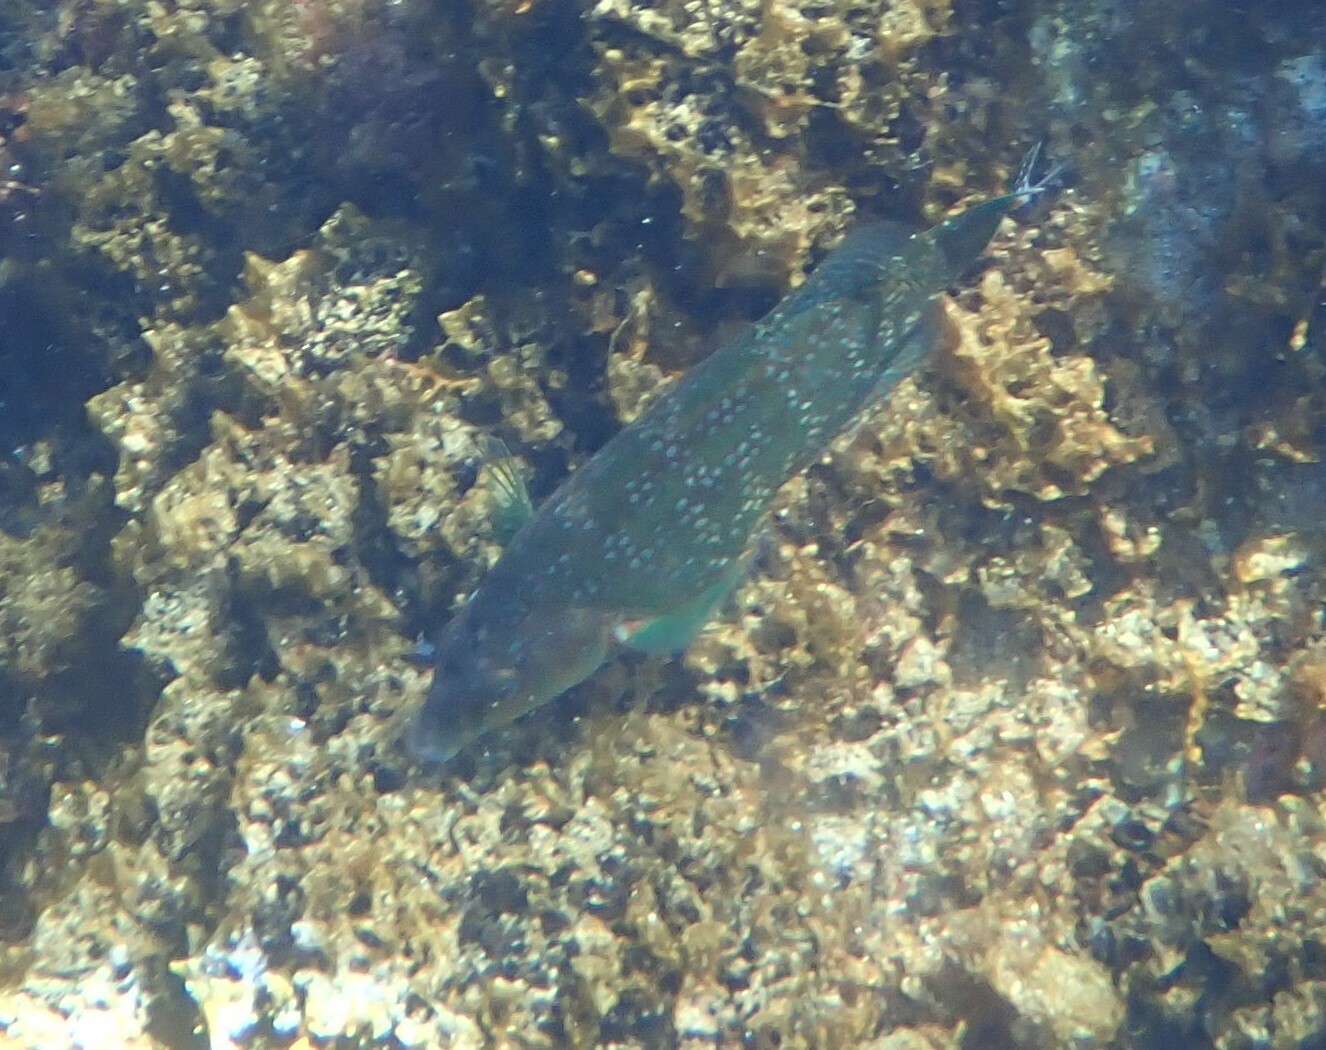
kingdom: Animalia
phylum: Chordata
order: Perciformes
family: Labridae
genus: Symphodus
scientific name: Symphodus caeruleus
